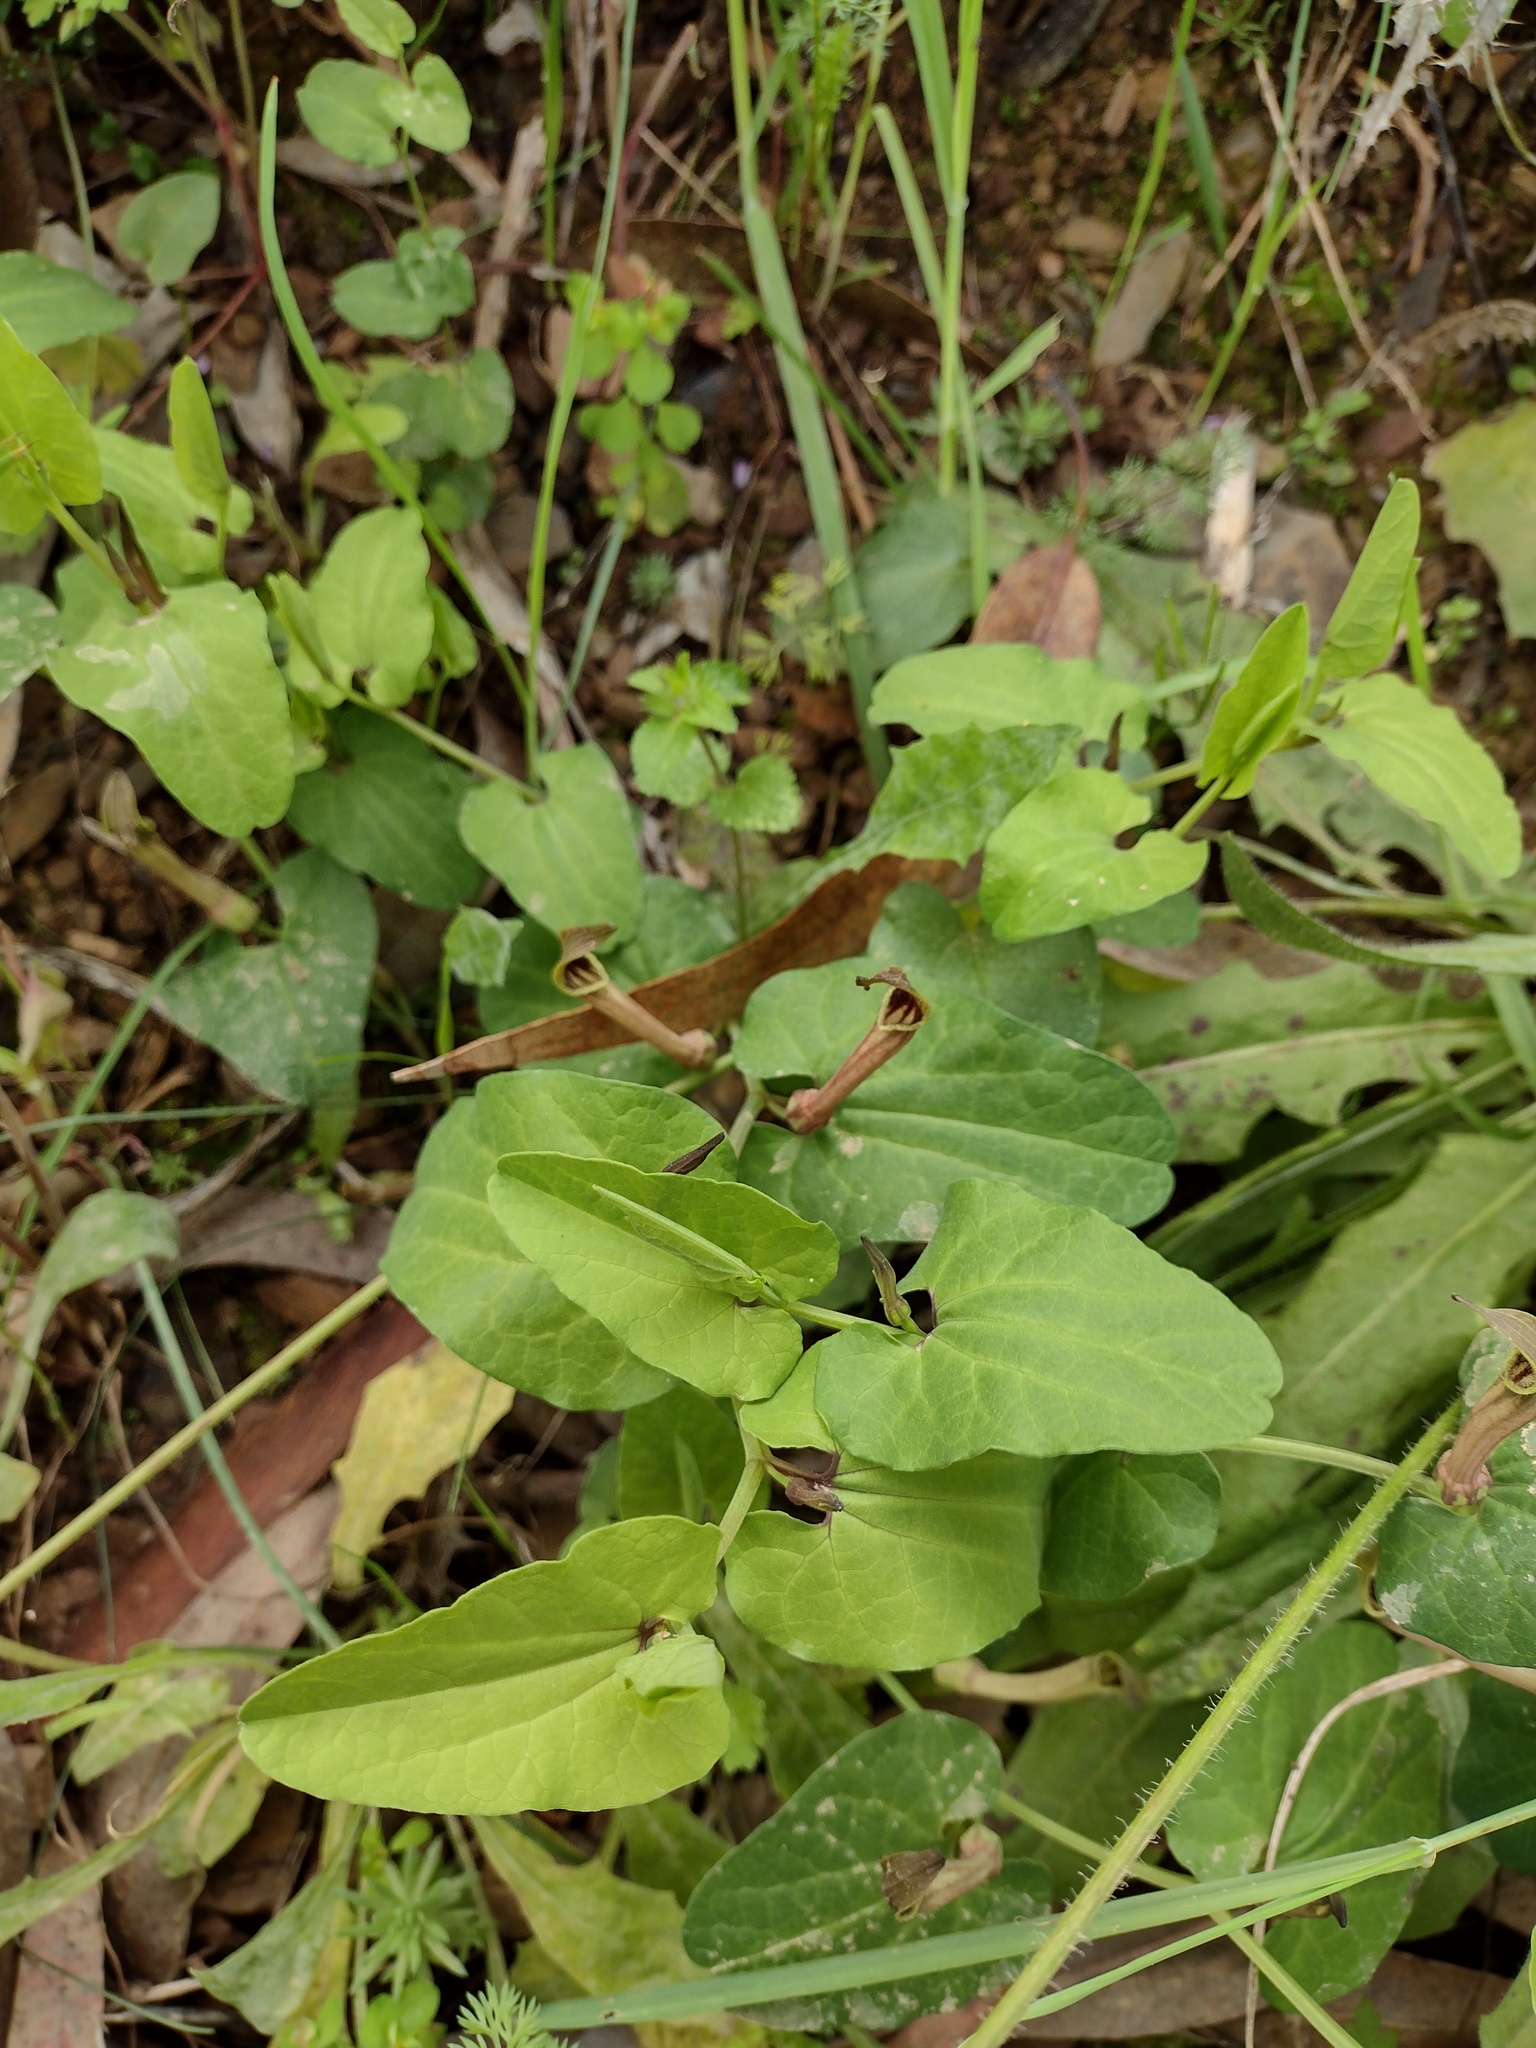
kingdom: Plantae
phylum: Tracheophyta
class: Magnoliopsida
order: Piperales
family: Aristolochiaceae
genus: Aristolochia
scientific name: Aristolochia paucinervis
